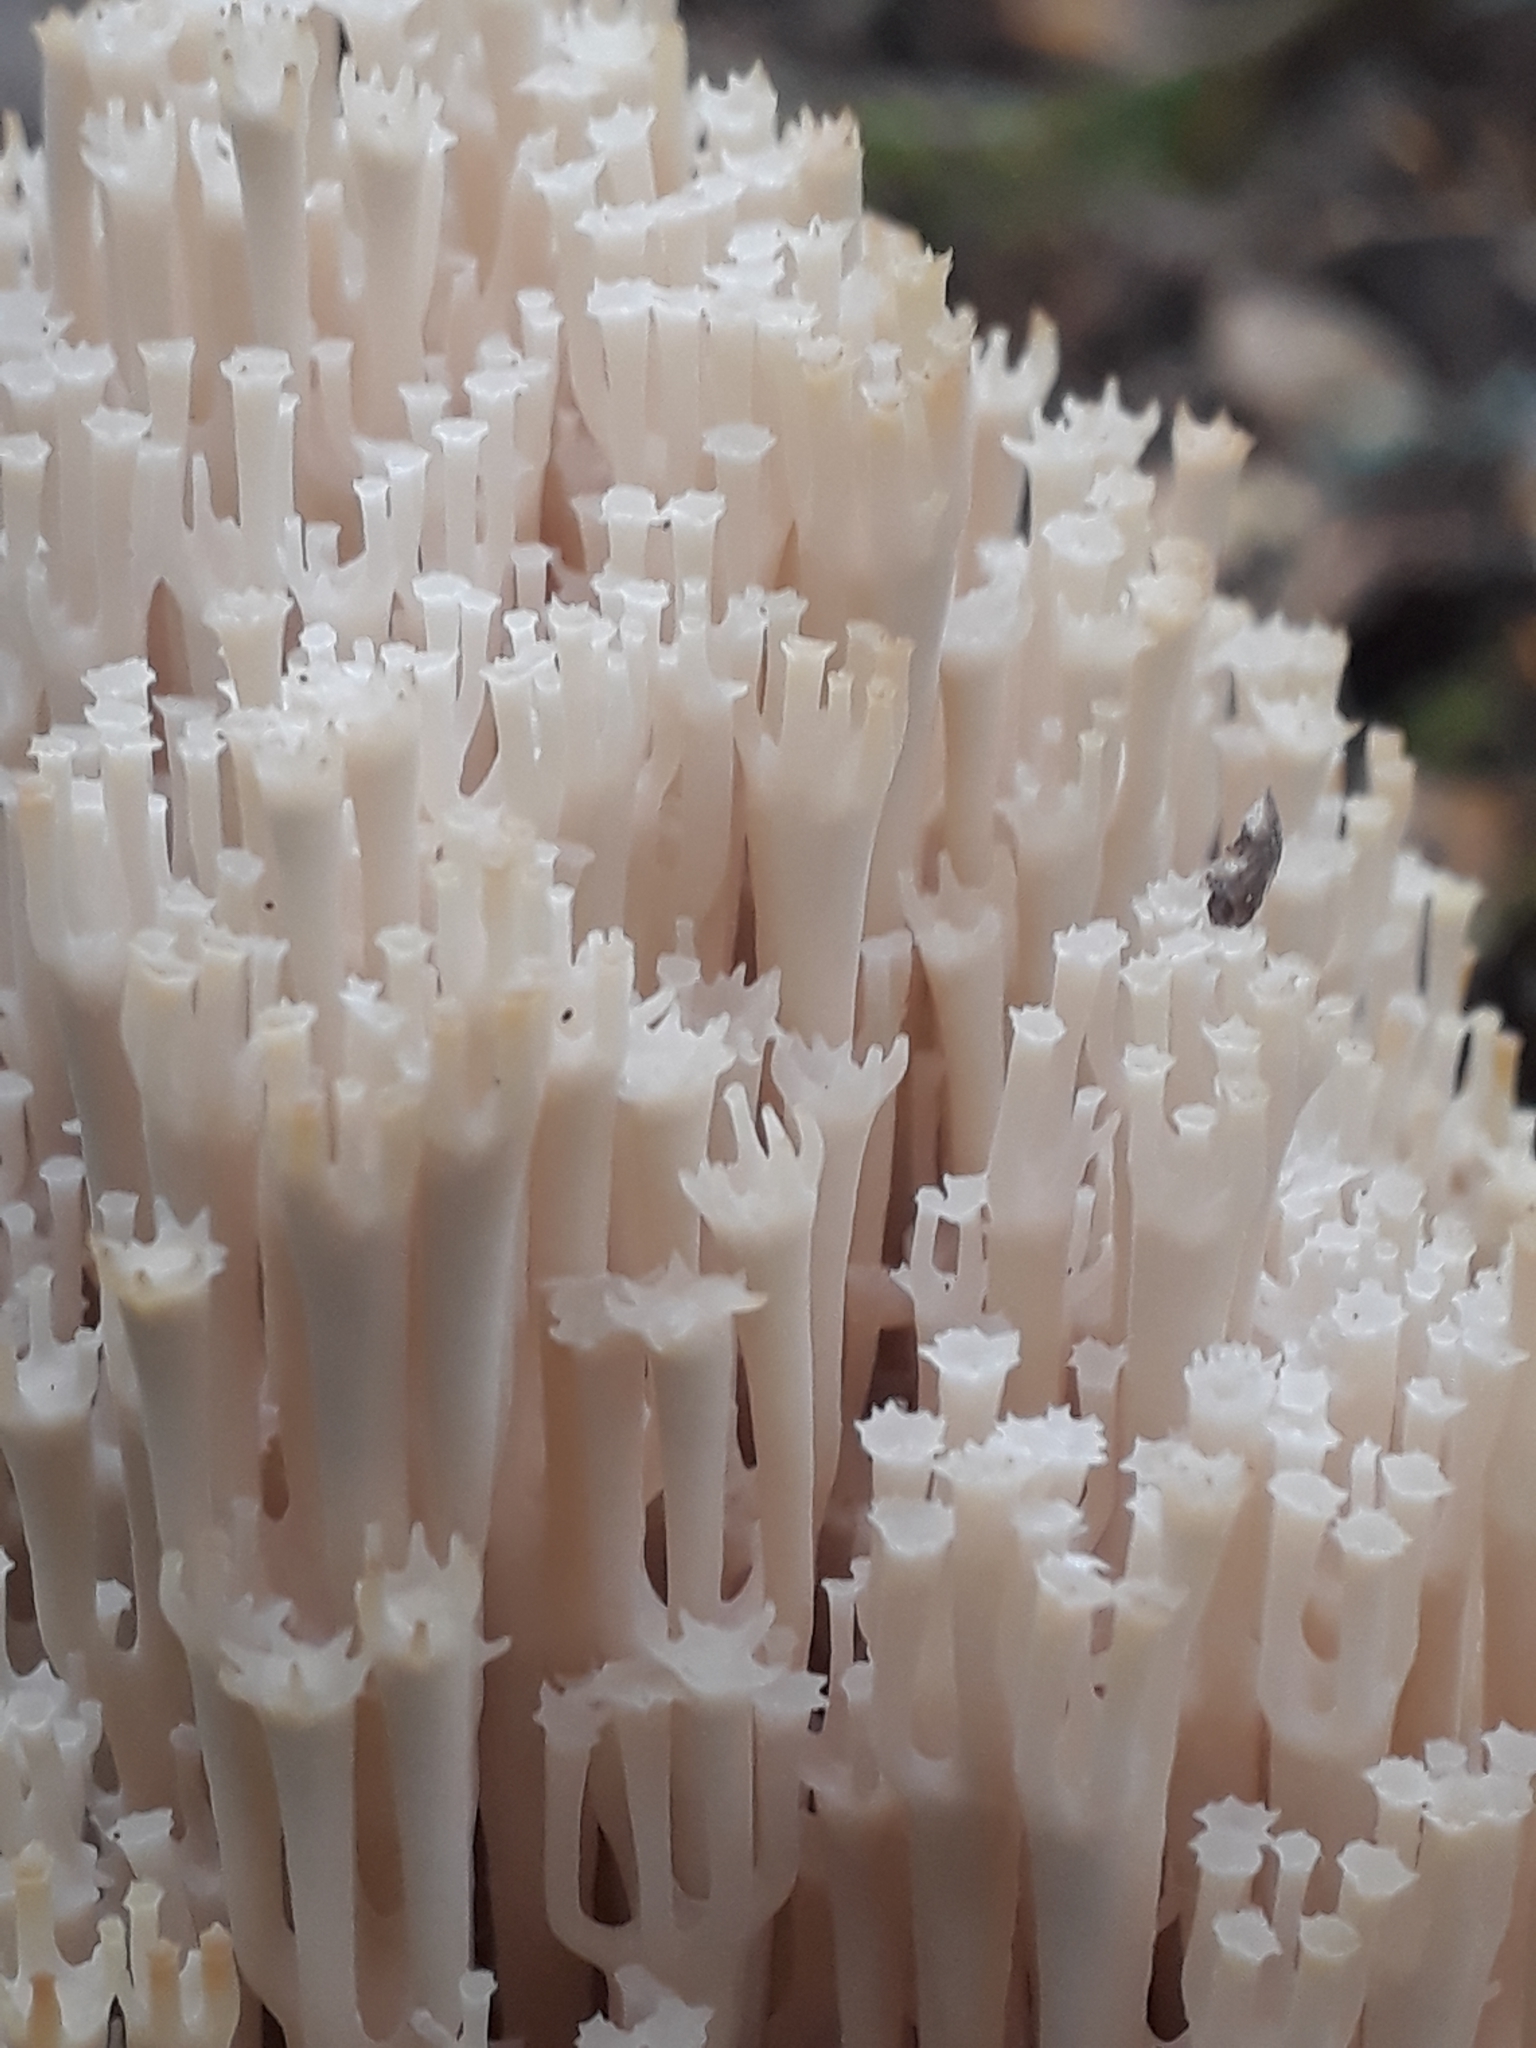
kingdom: Fungi
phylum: Basidiomycota
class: Agaricomycetes
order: Russulales
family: Auriscalpiaceae
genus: Artomyces
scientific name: Artomyces pyxidatus
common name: Crown-tipped coral fungus
